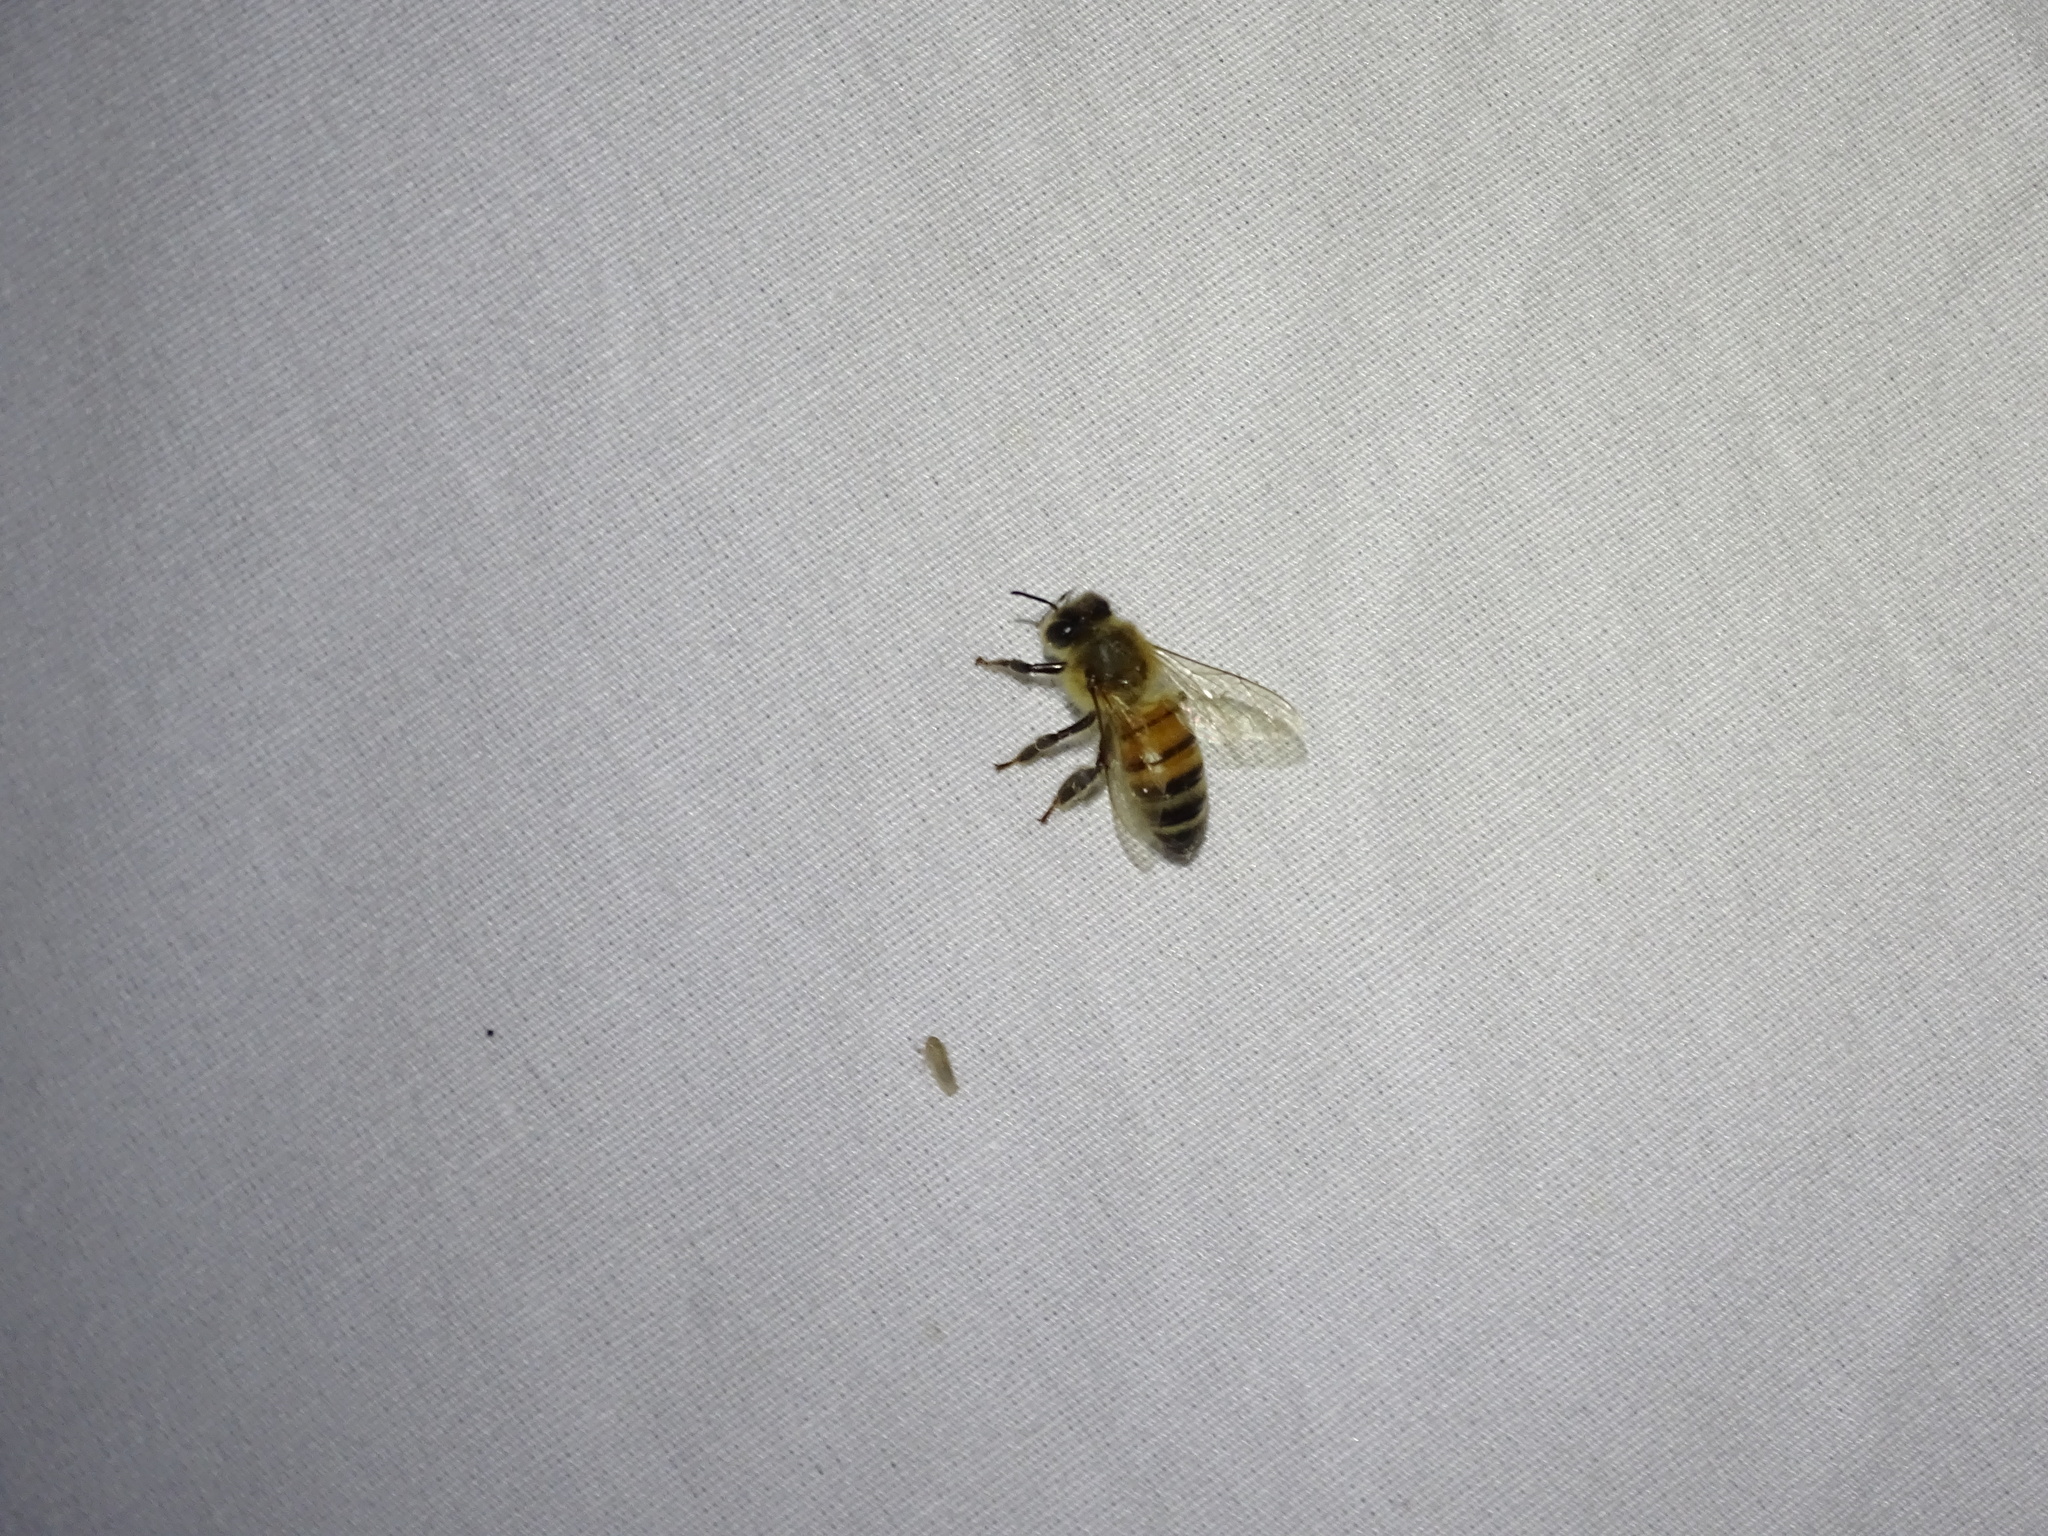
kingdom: Animalia
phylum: Arthropoda
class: Insecta
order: Hymenoptera
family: Apidae
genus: Apis
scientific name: Apis mellifera
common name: Honey bee
